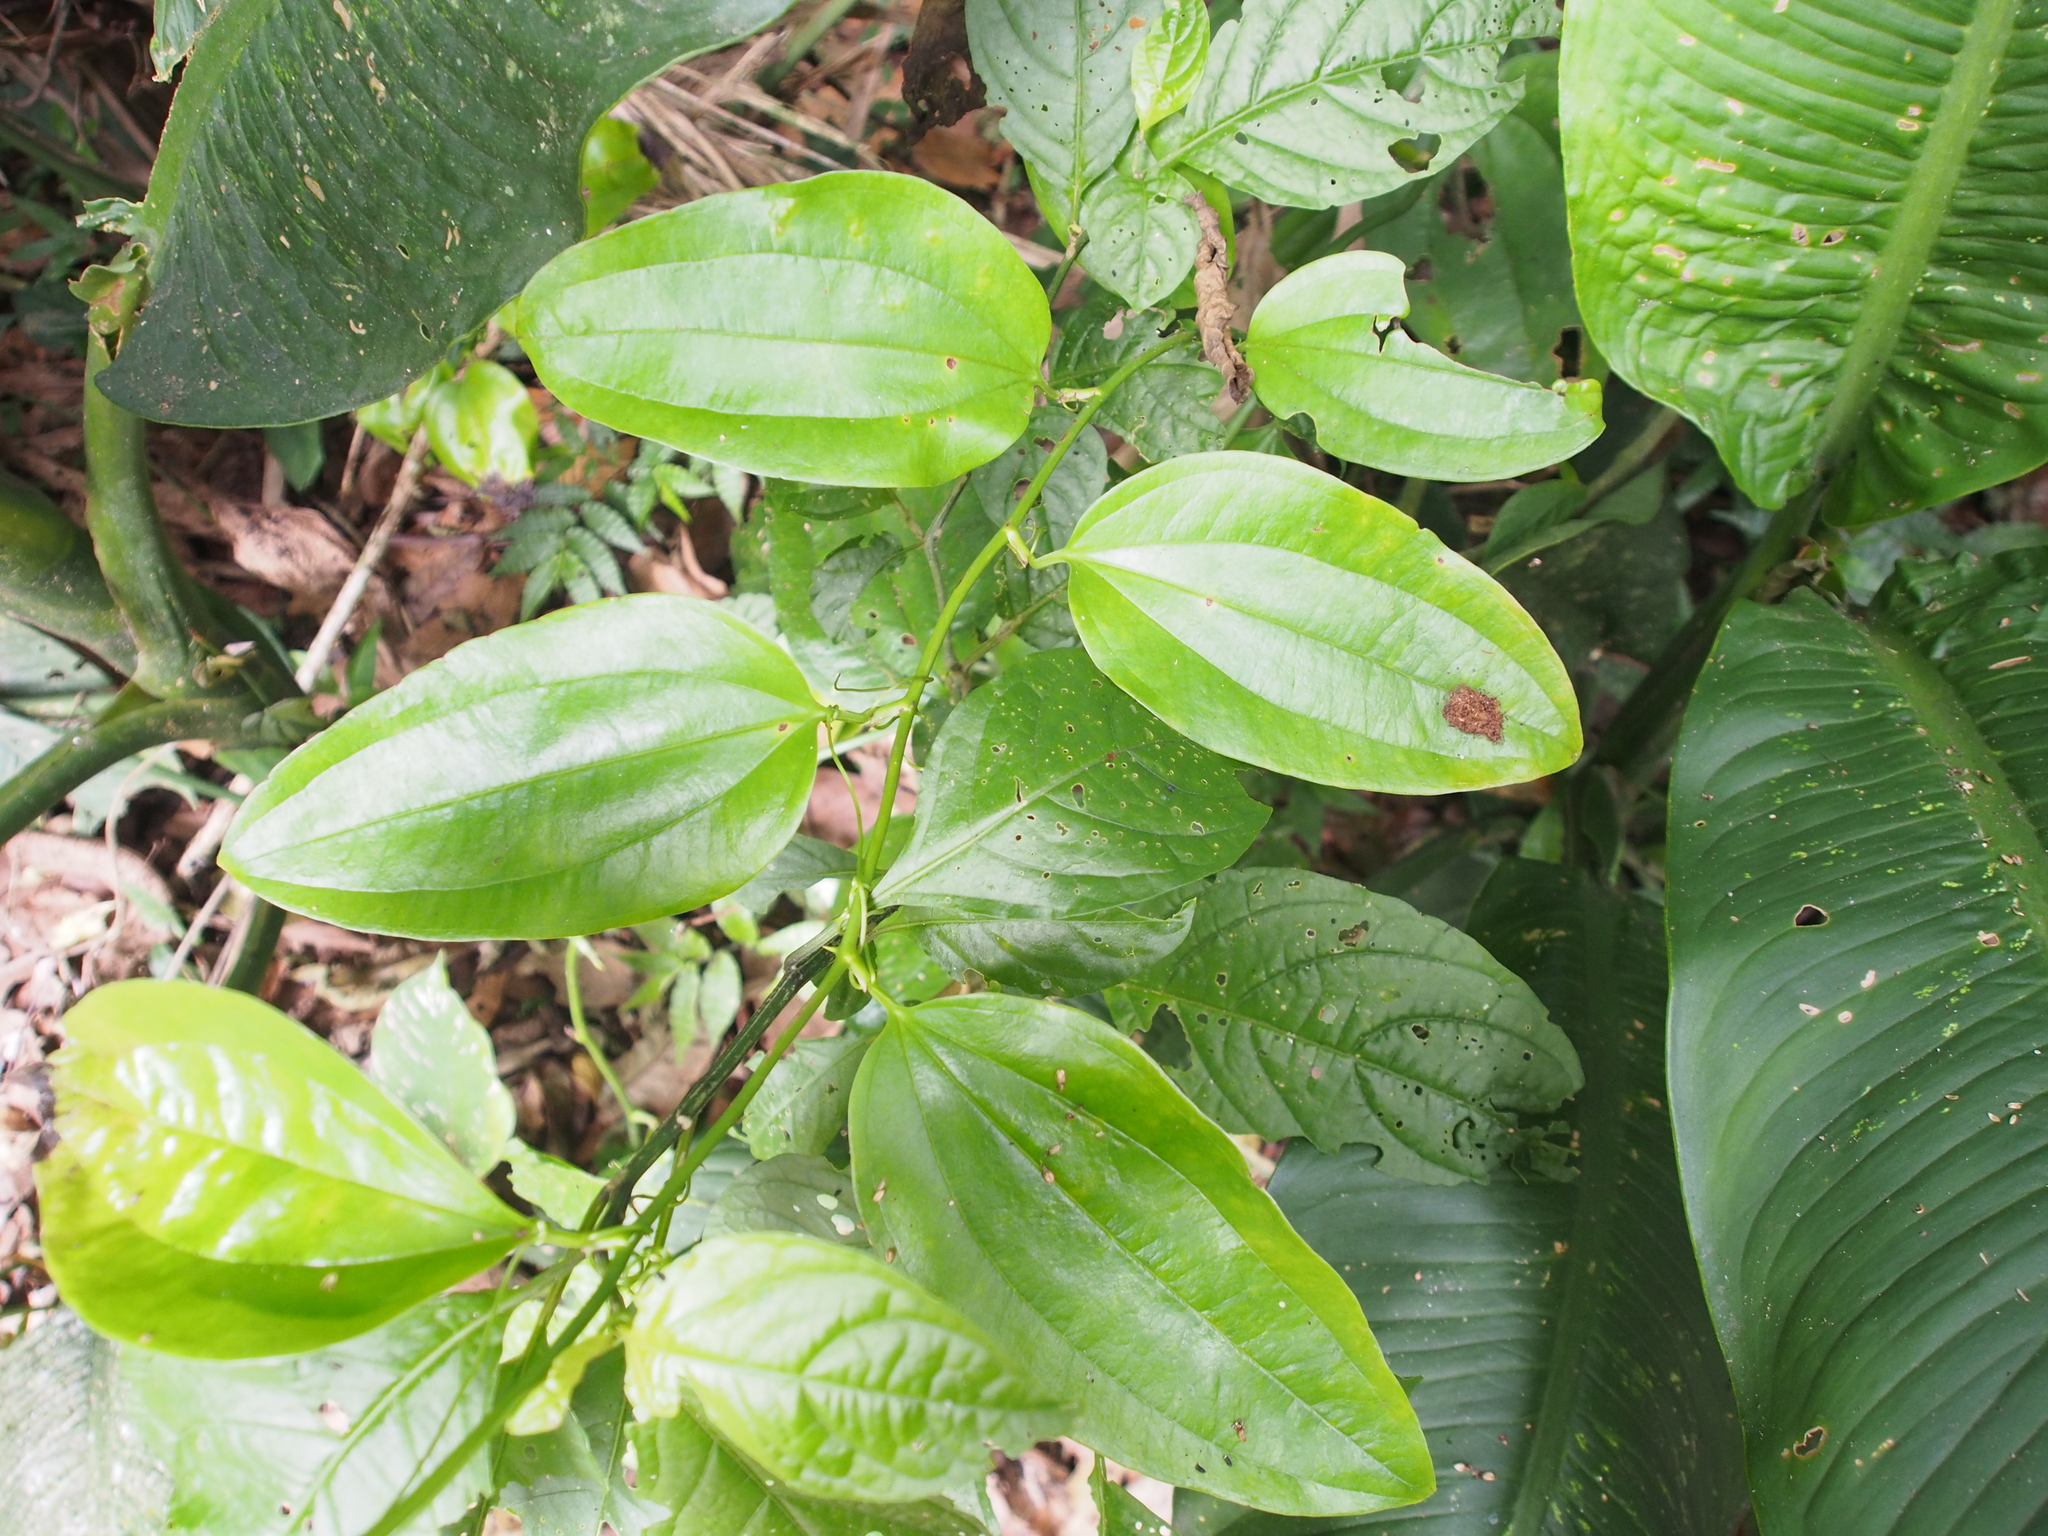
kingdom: Plantae
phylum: Tracheophyta
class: Liliopsida
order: Liliales
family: Smilacaceae
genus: Smilax
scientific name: Smilax domingensis
